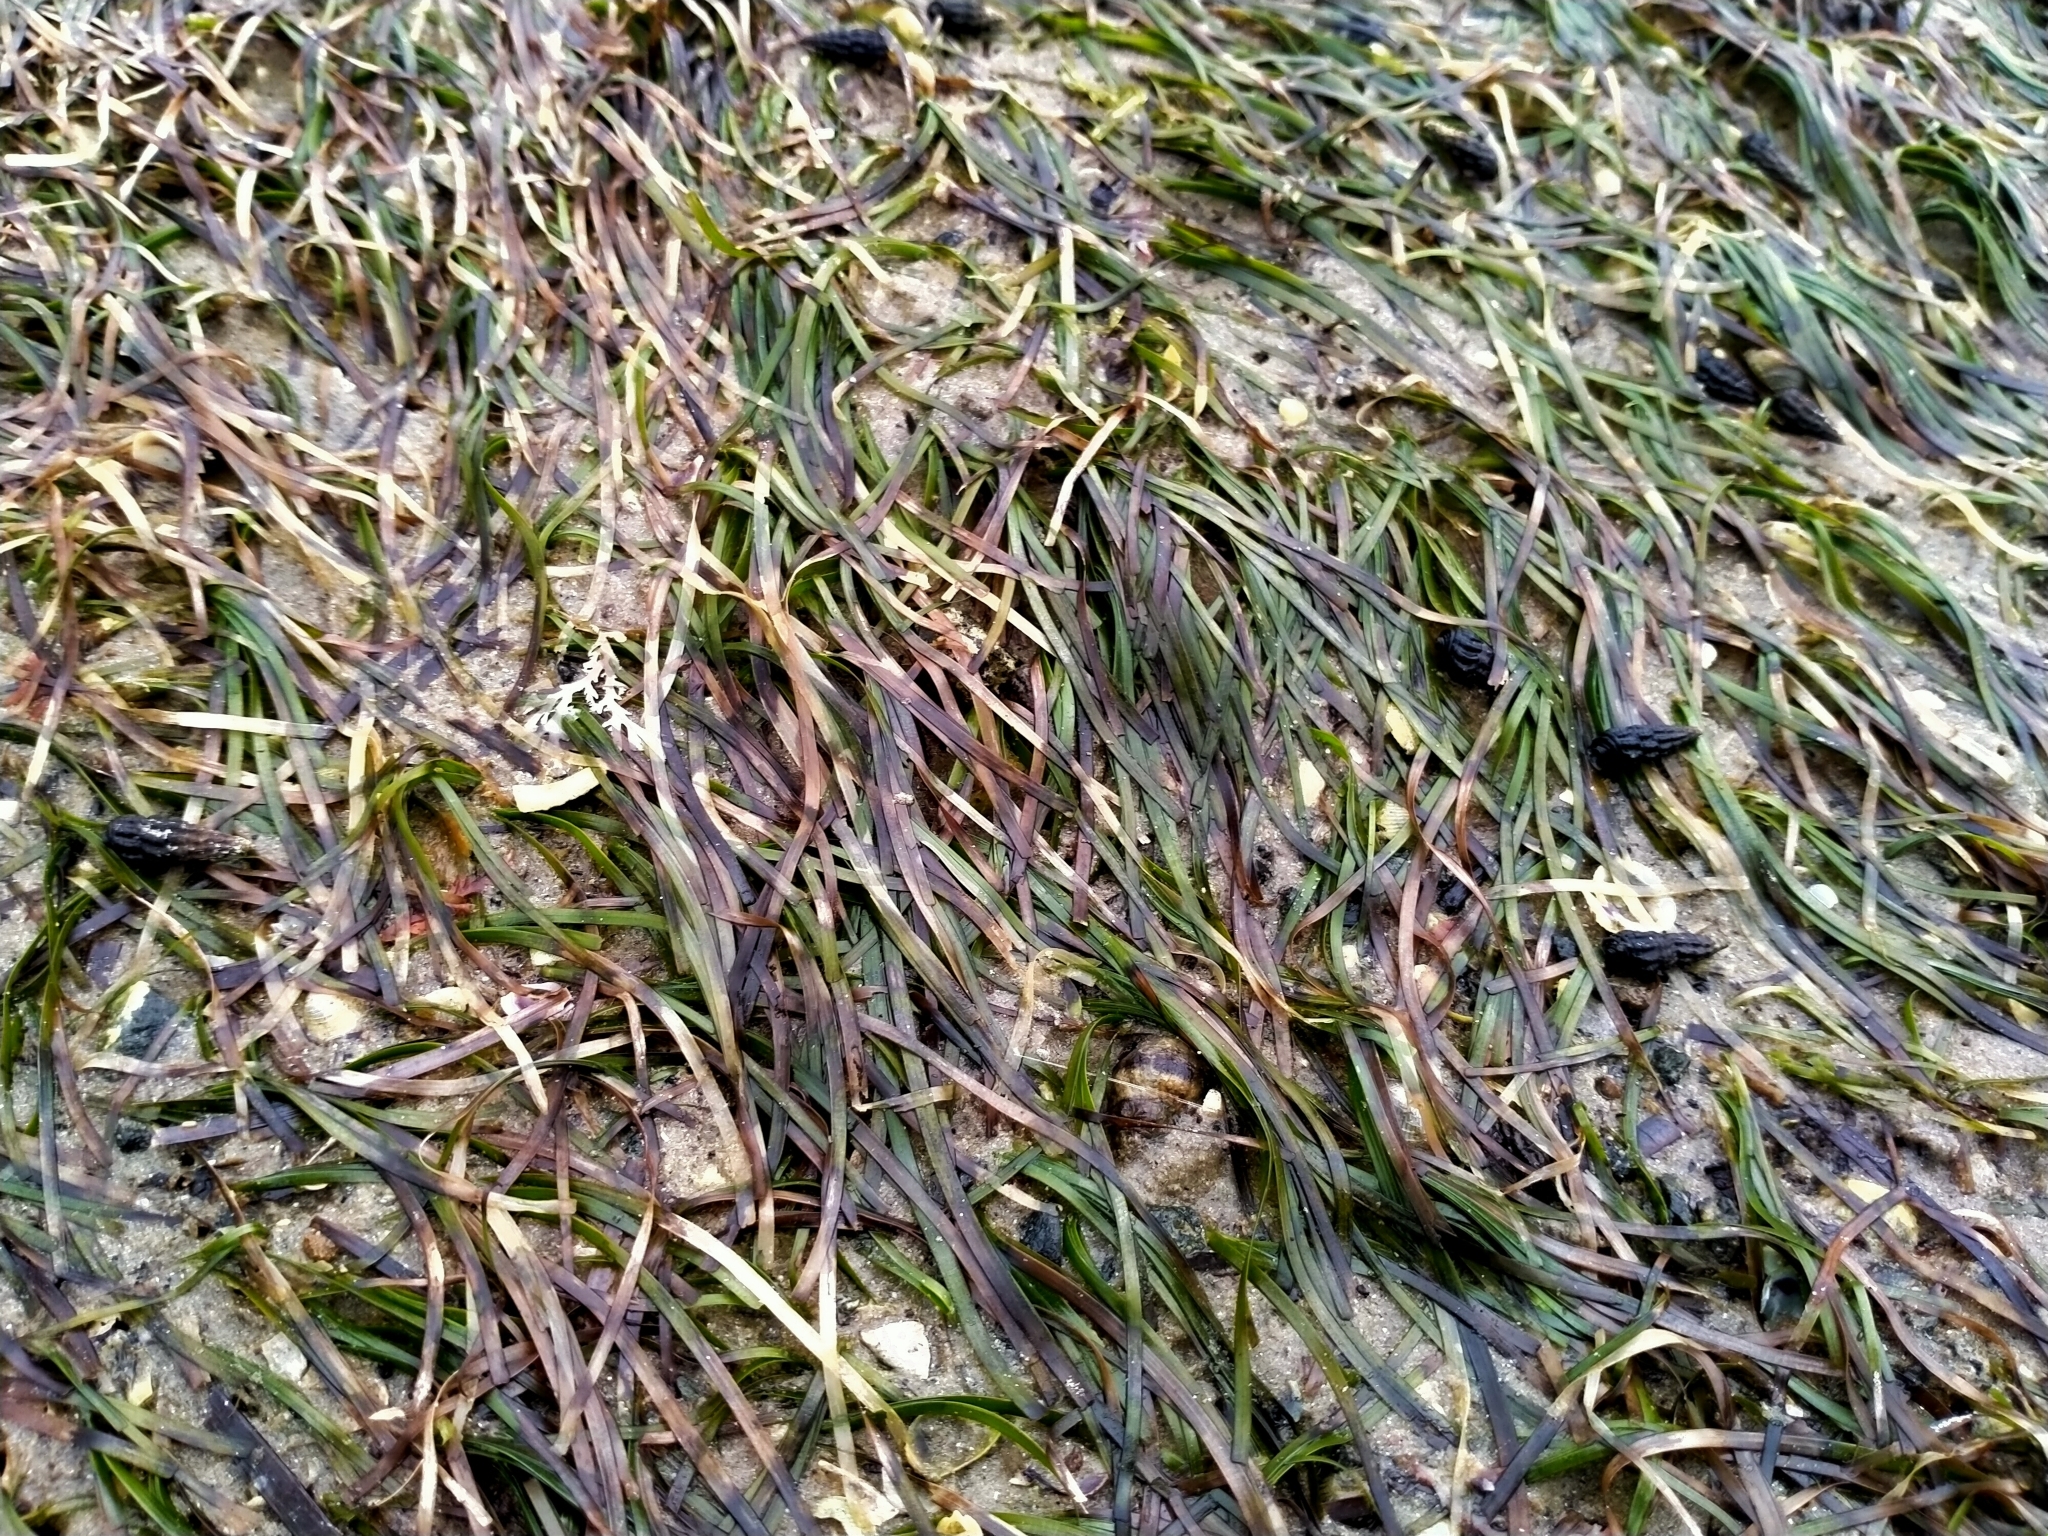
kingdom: Plantae
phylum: Tracheophyta
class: Liliopsida
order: Alismatales
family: Zosteraceae
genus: Zostera
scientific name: Zostera novazelandica
